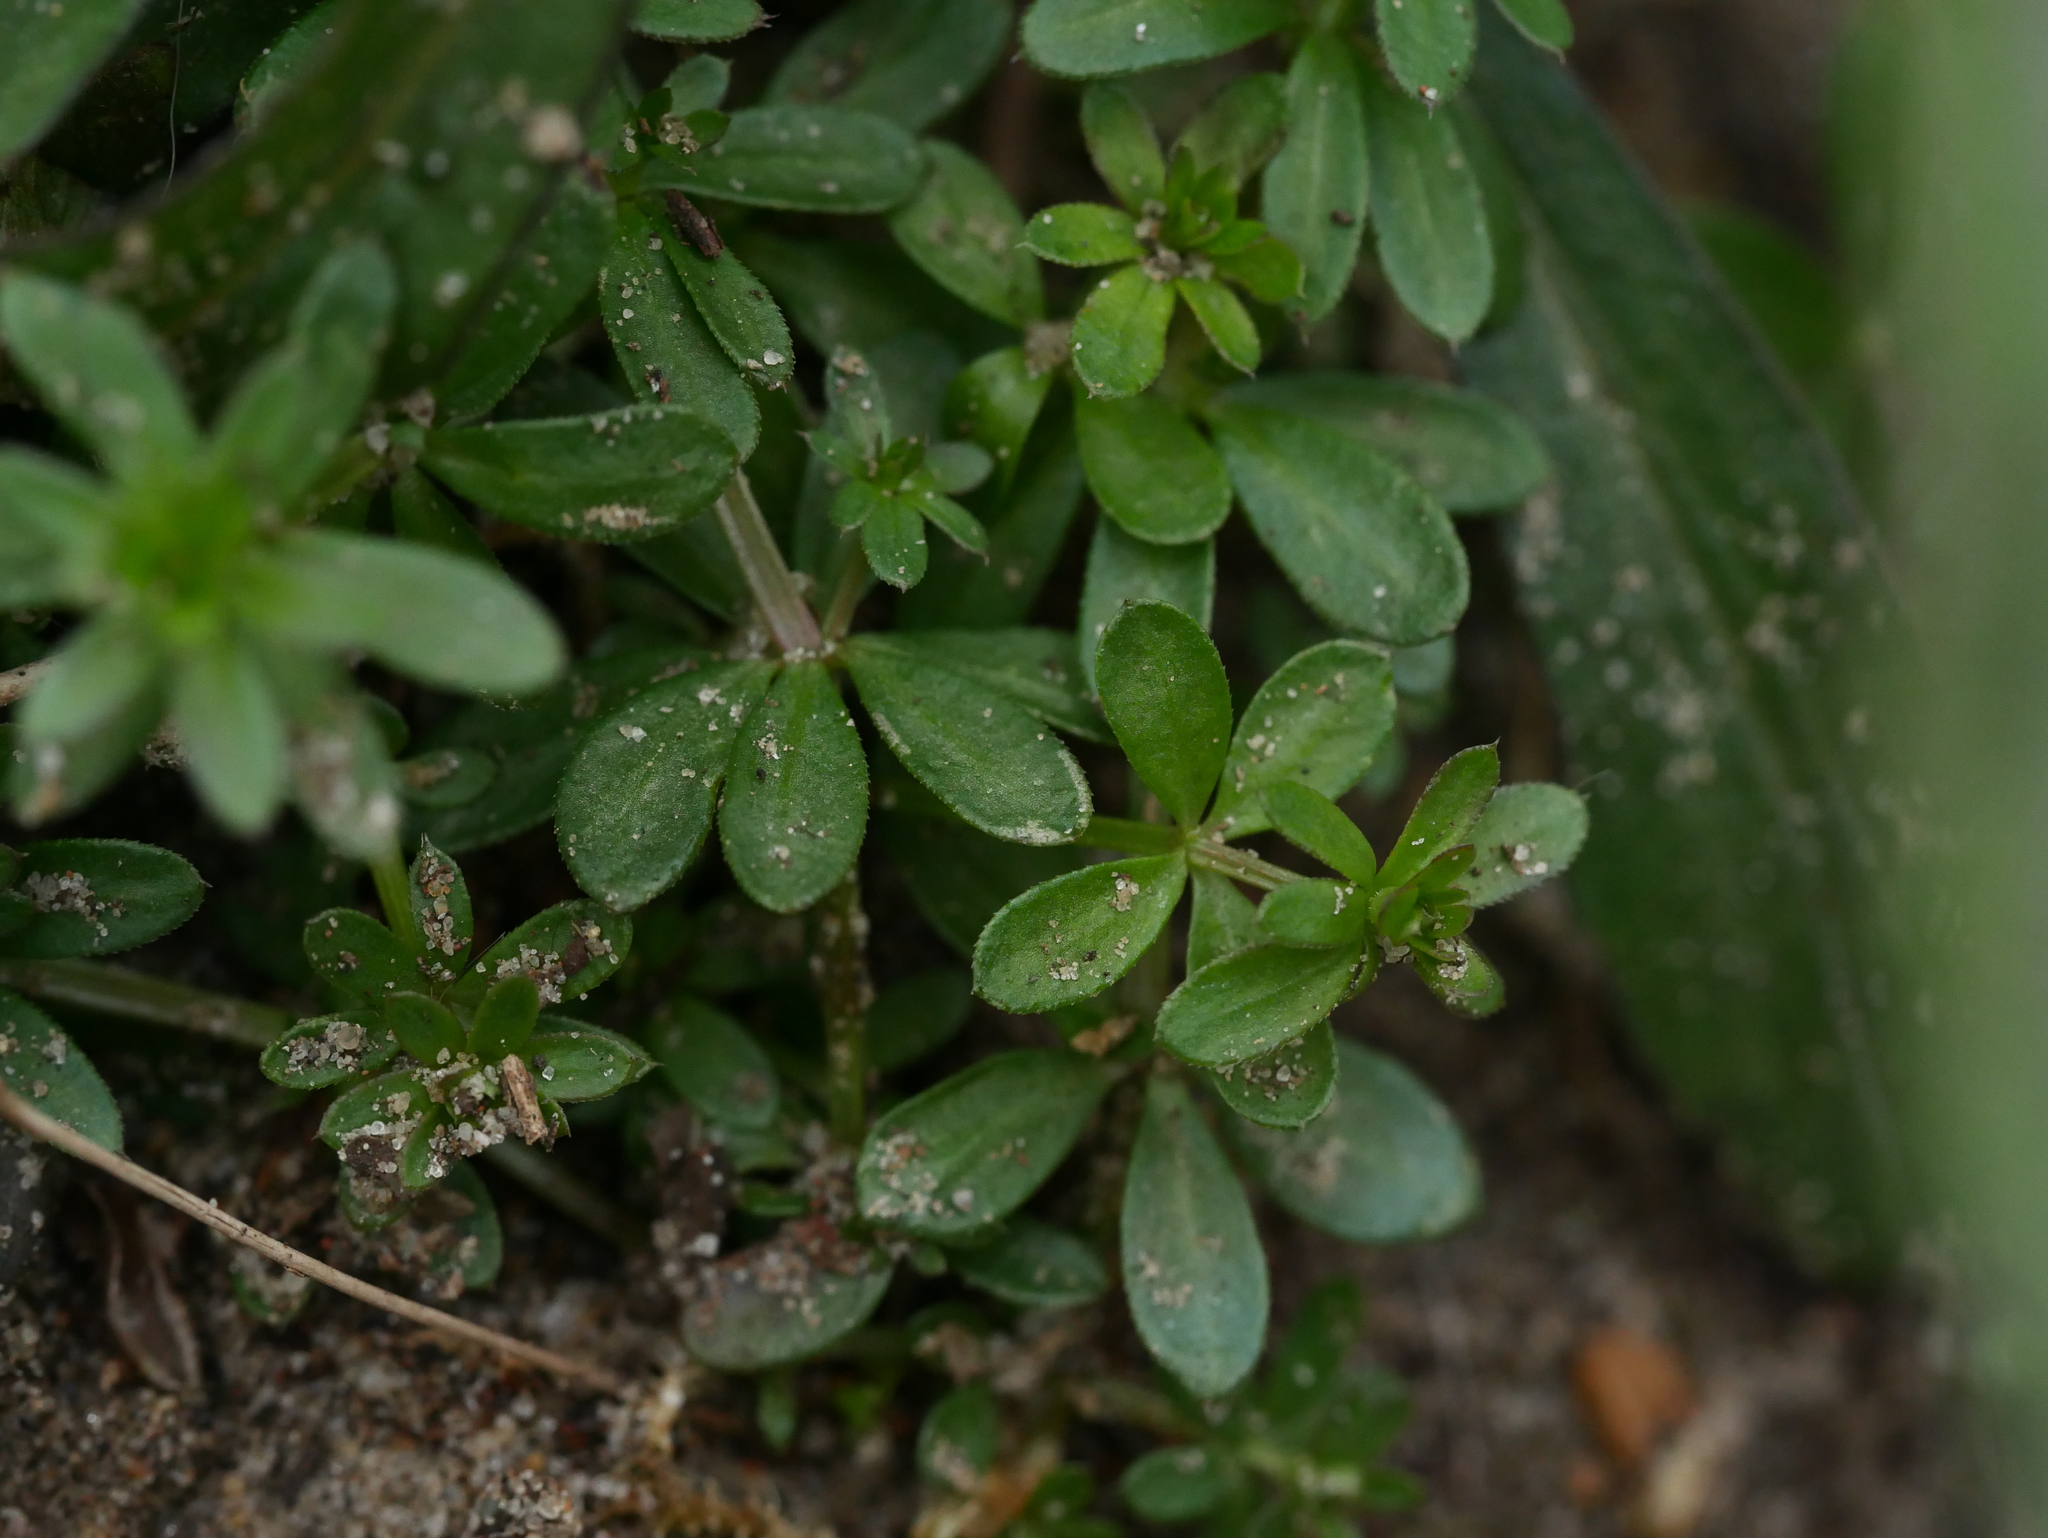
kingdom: Plantae
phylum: Tracheophyta
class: Magnoliopsida
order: Gentianales
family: Rubiaceae
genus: Galium
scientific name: Galium mollugo
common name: Hedge bedstraw
